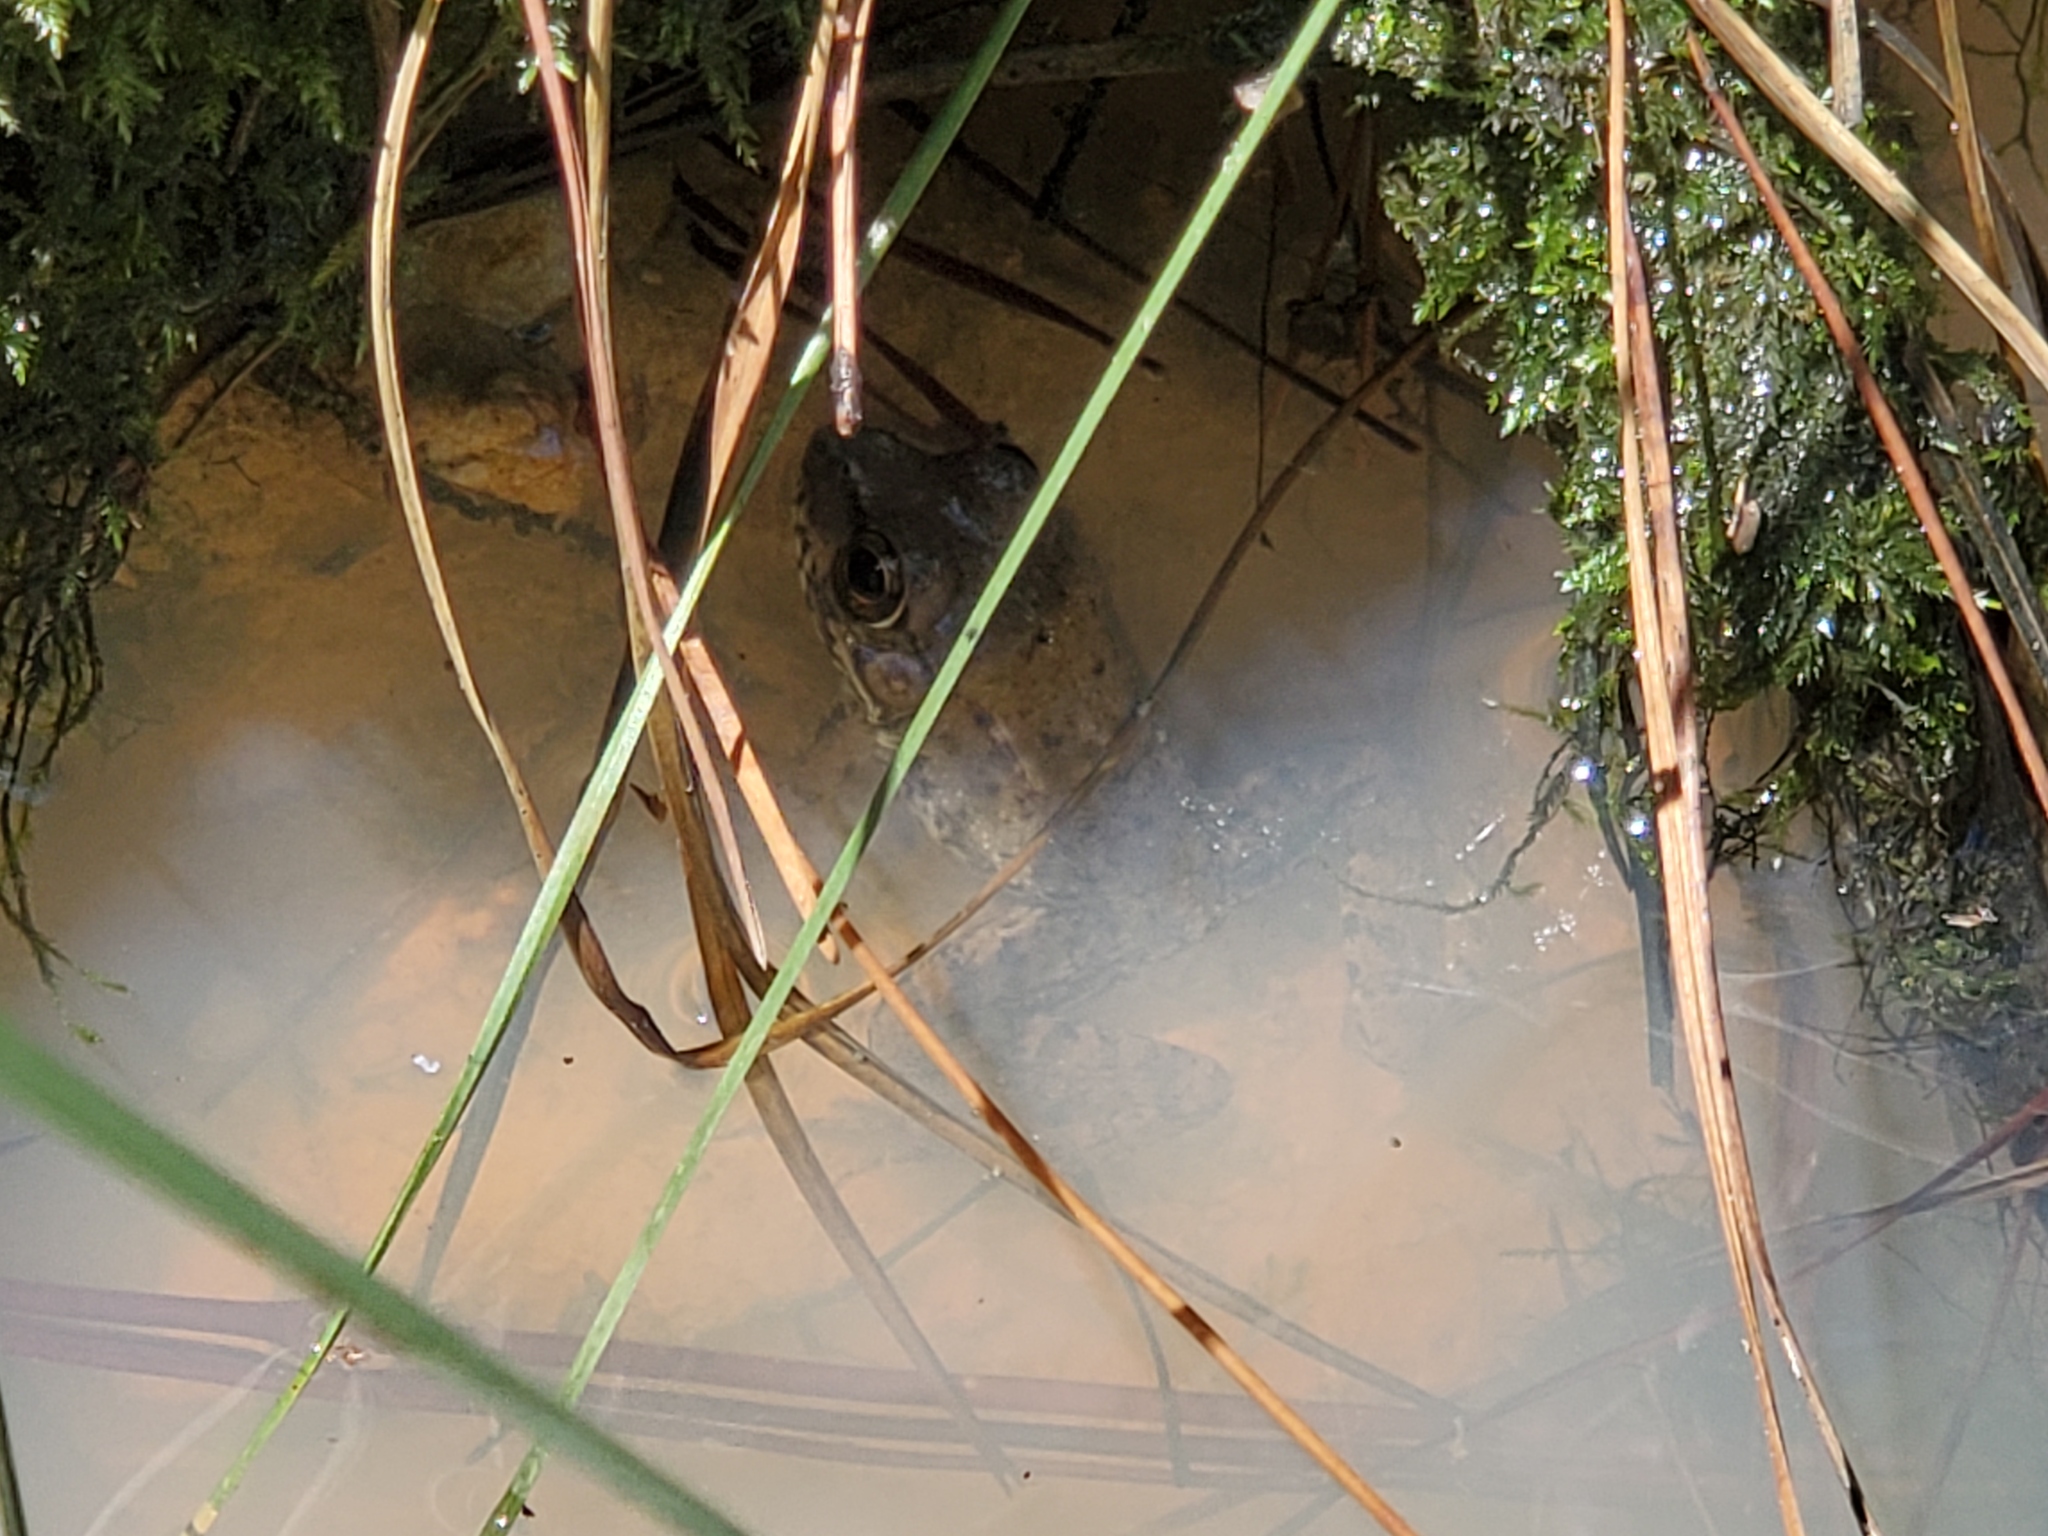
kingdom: Animalia
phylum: Chordata
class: Amphibia
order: Anura
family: Ranidae
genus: Lithobates
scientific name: Lithobates clamitans
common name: Green frog
